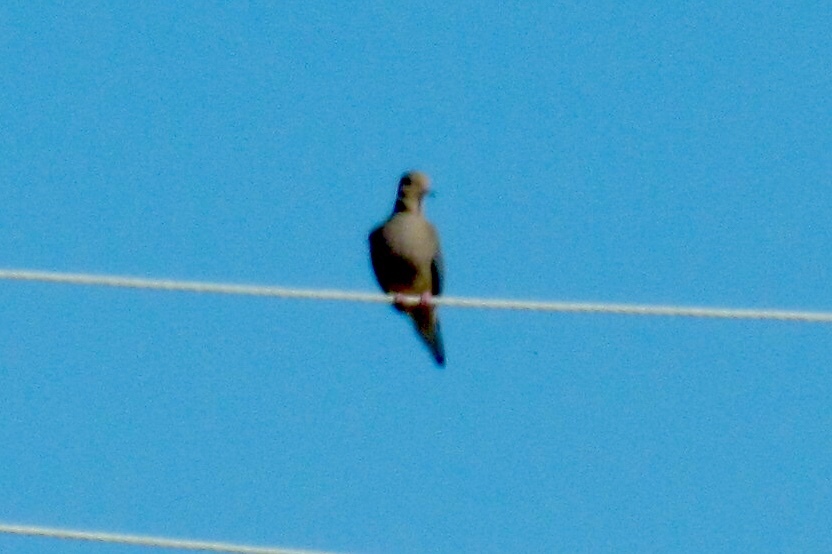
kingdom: Animalia
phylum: Chordata
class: Aves
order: Columbiformes
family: Columbidae
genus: Zenaida
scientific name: Zenaida macroura
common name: Mourning dove
